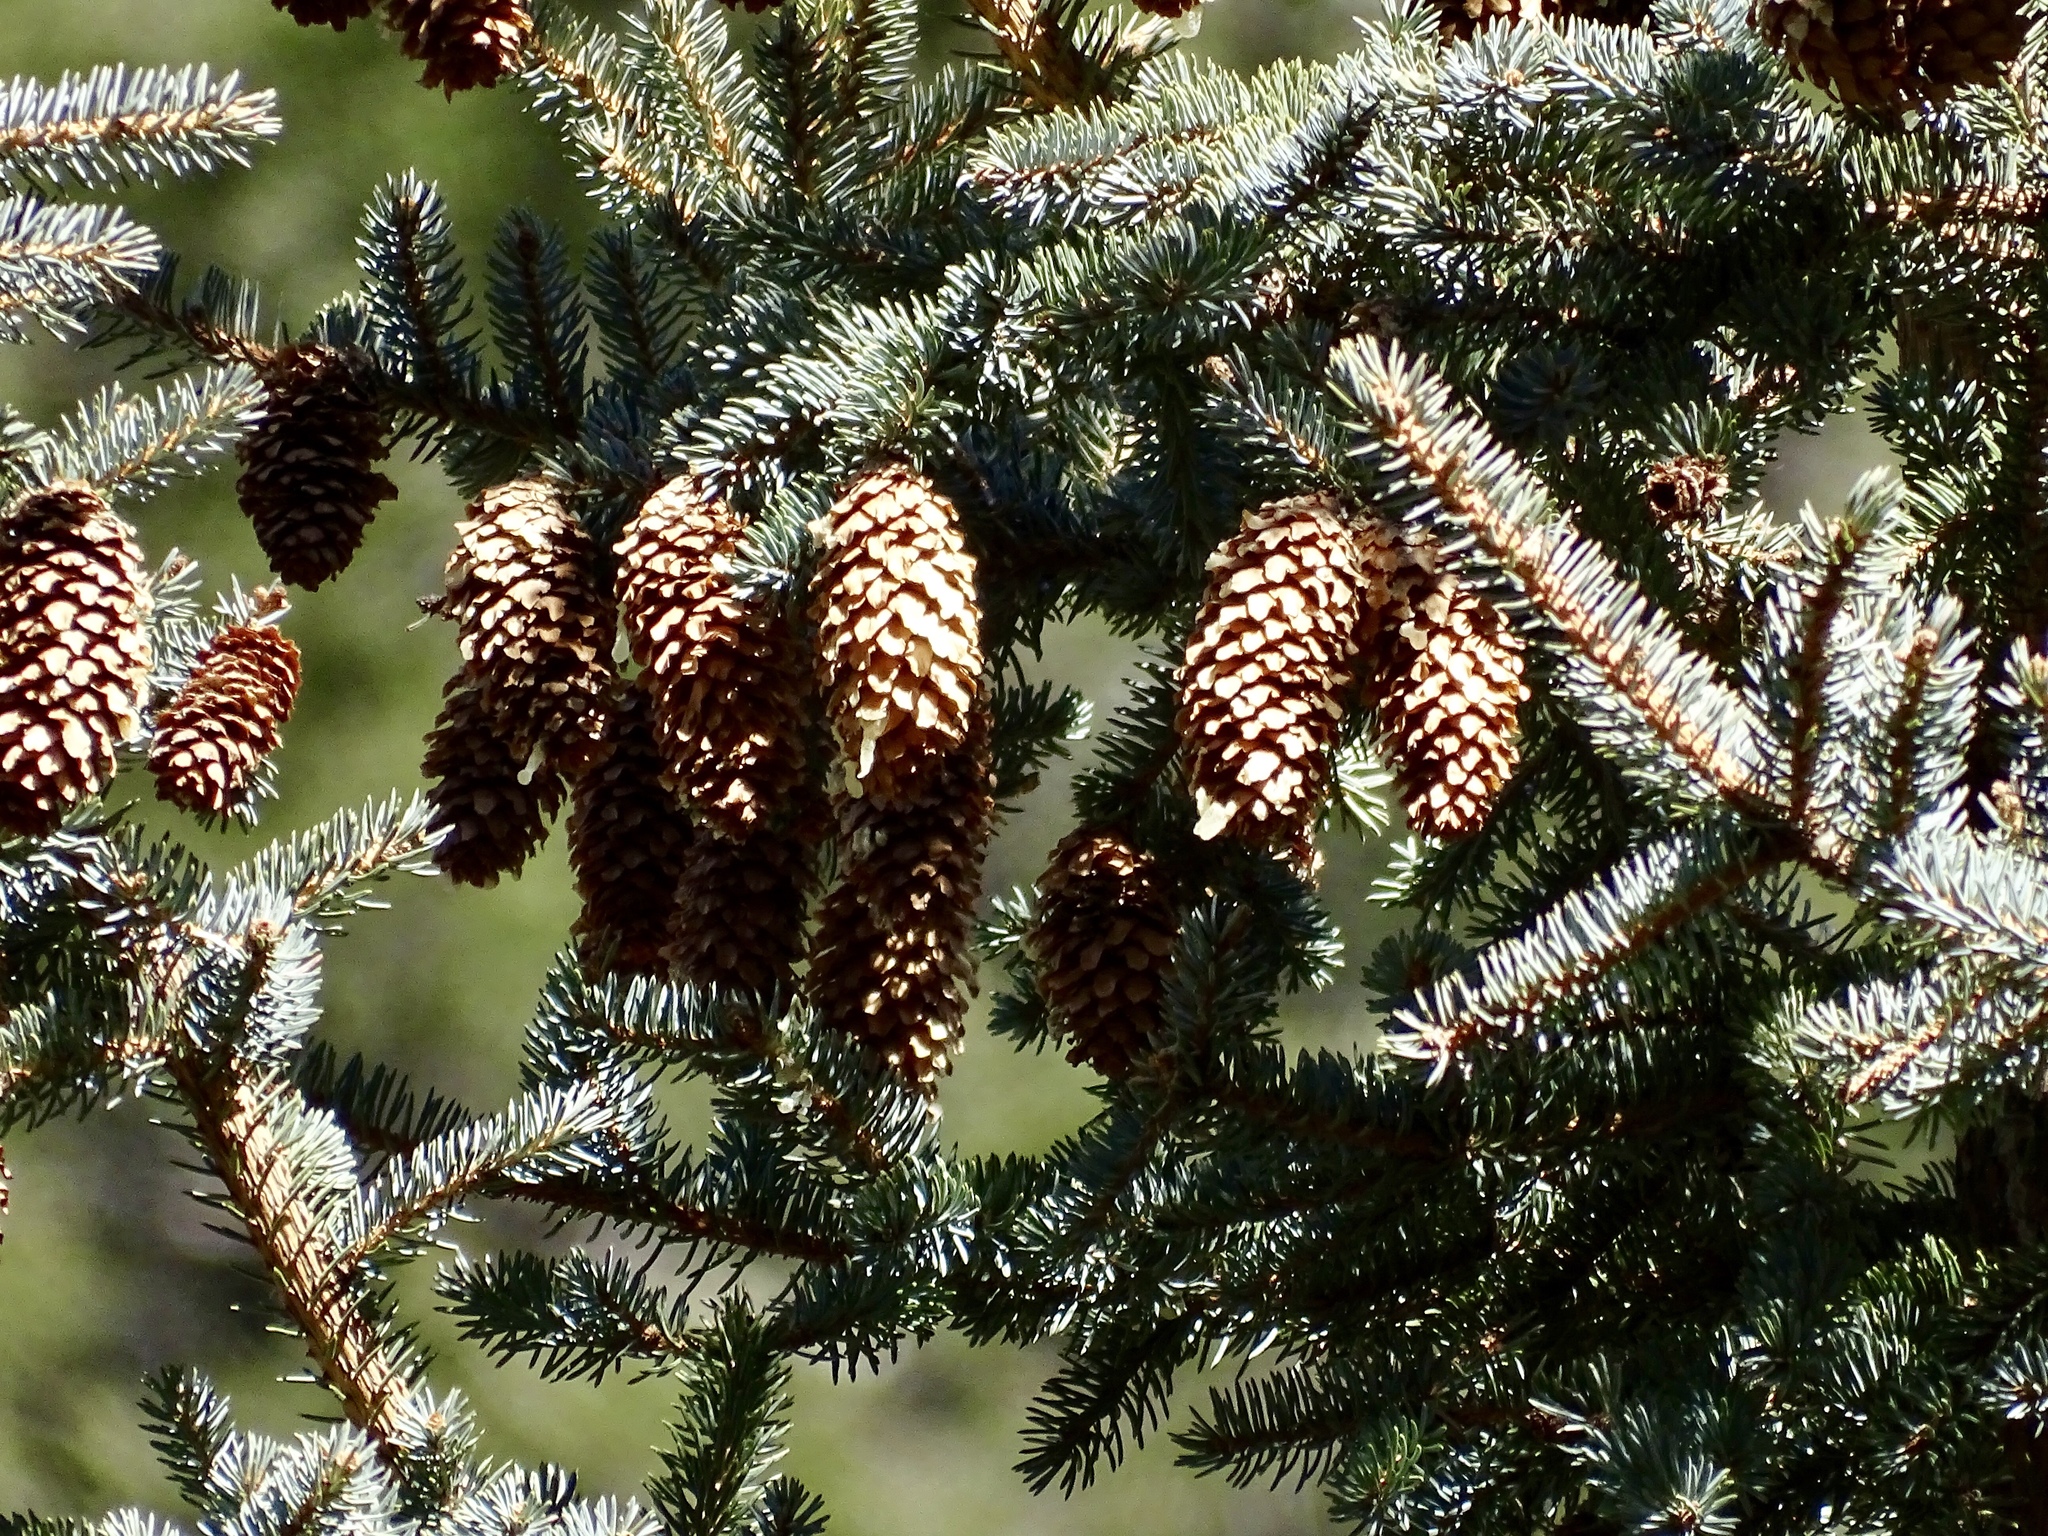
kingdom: Plantae
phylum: Tracheophyta
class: Pinopsida
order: Pinales
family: Pinaceae
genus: Picea
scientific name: Picea pungens
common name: Colorado spruce
